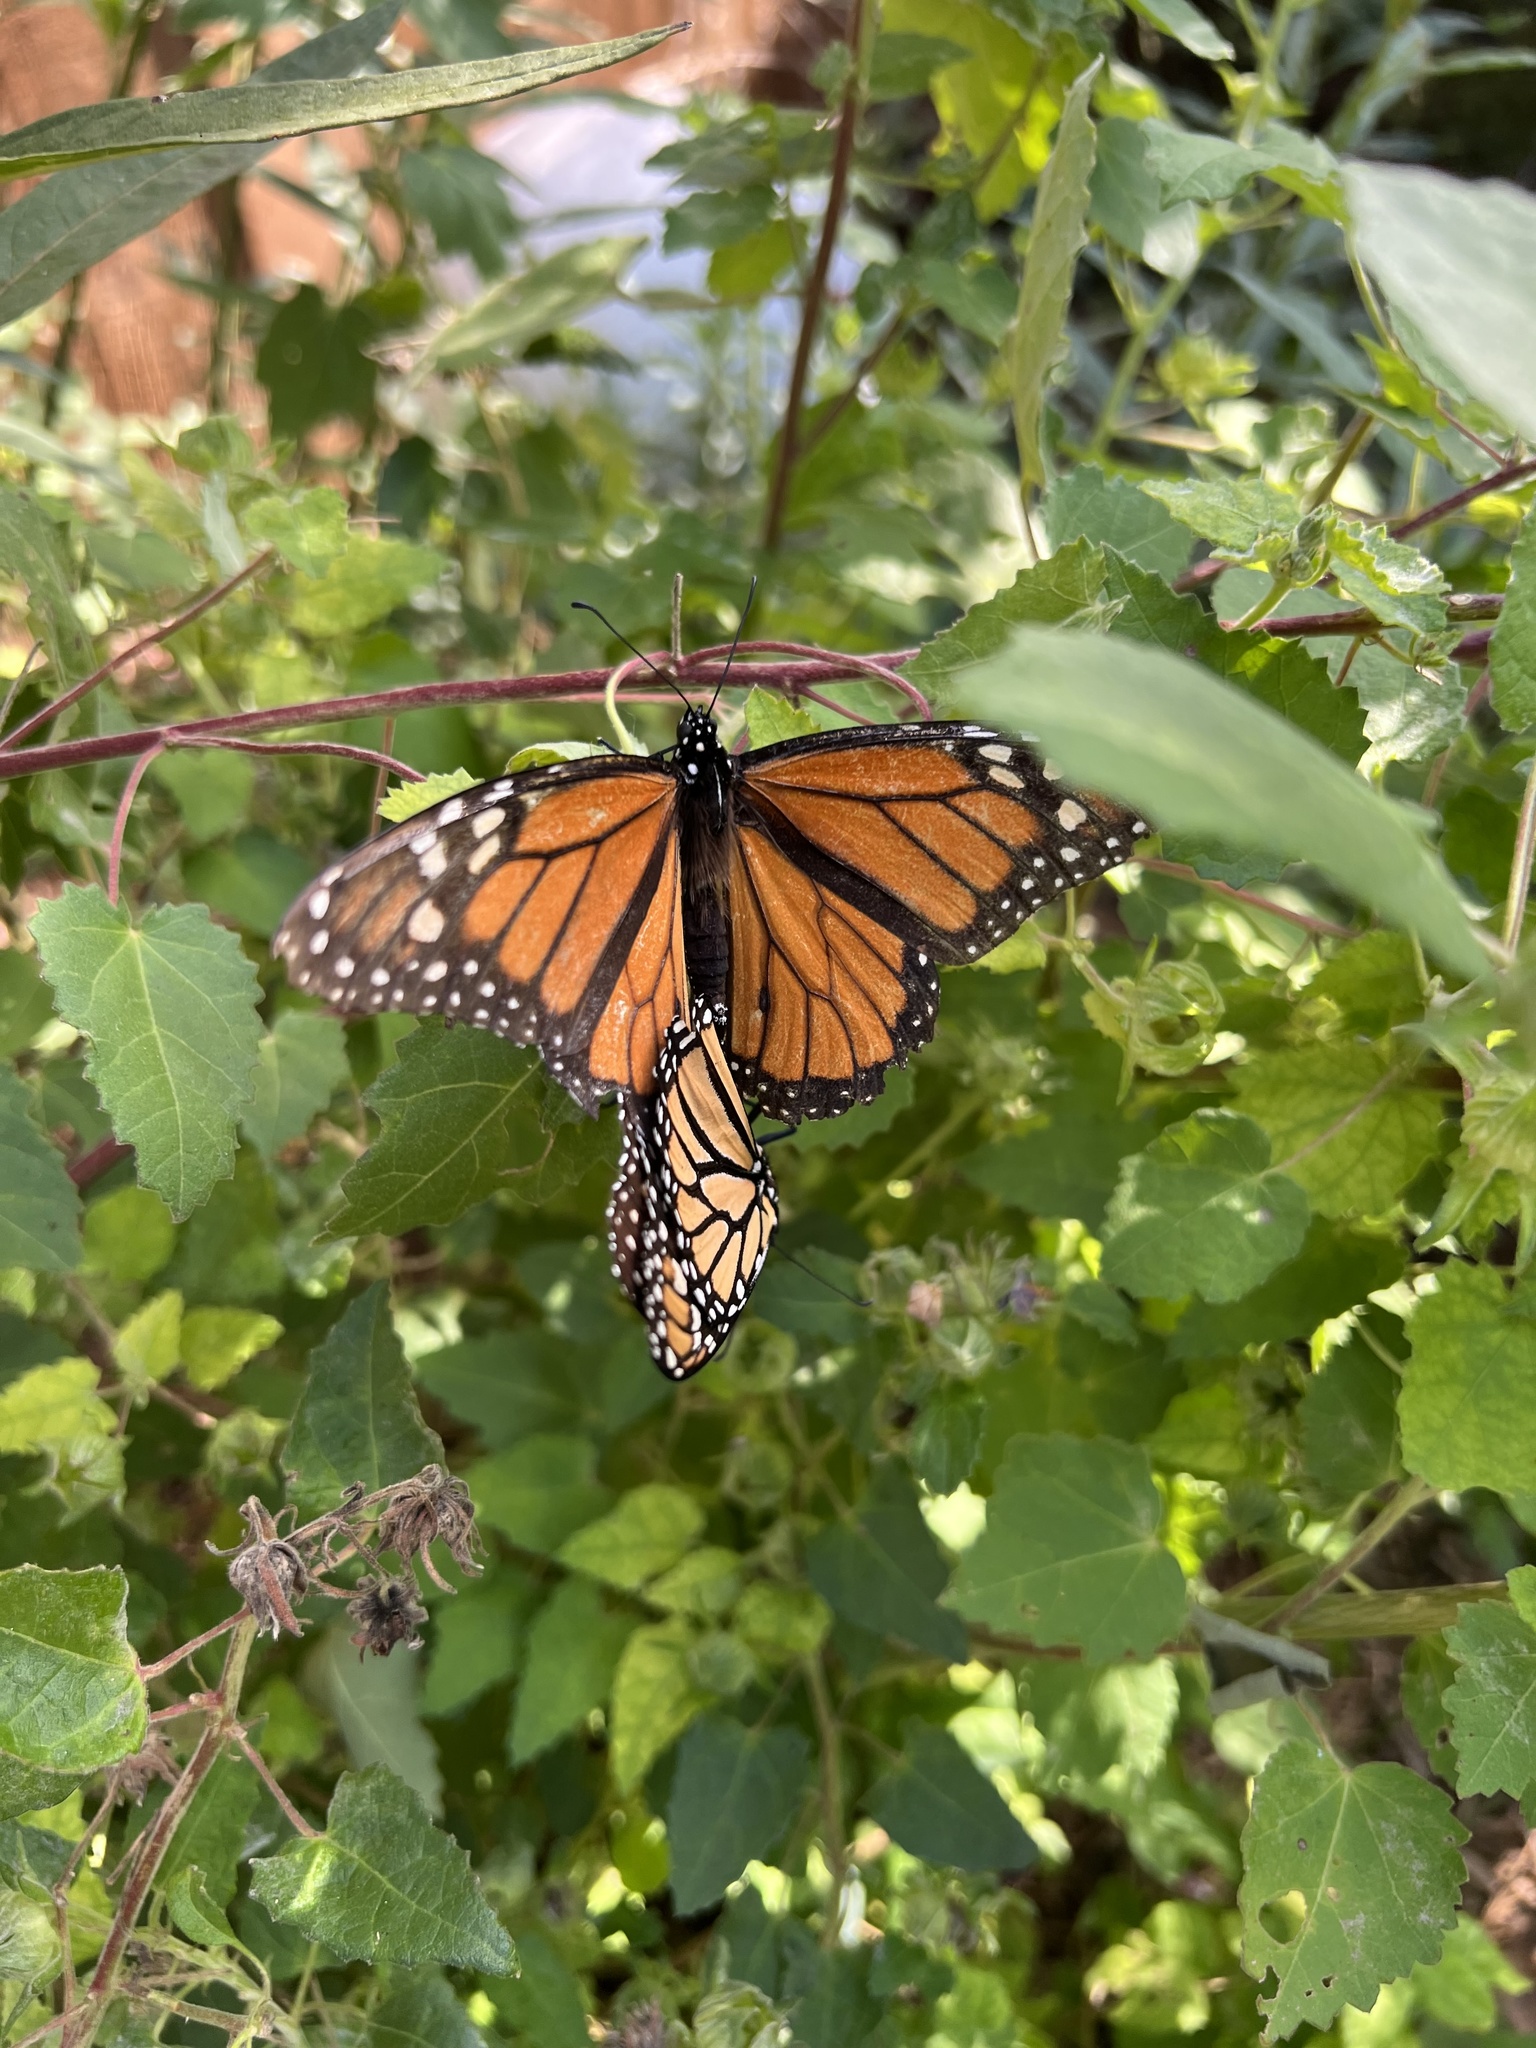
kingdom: Animalia
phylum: Arthropoda
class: Insecta
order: Lepidoptera
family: Nymphalidae
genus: Danaus
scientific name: Danaus plexippus
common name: Monarch
